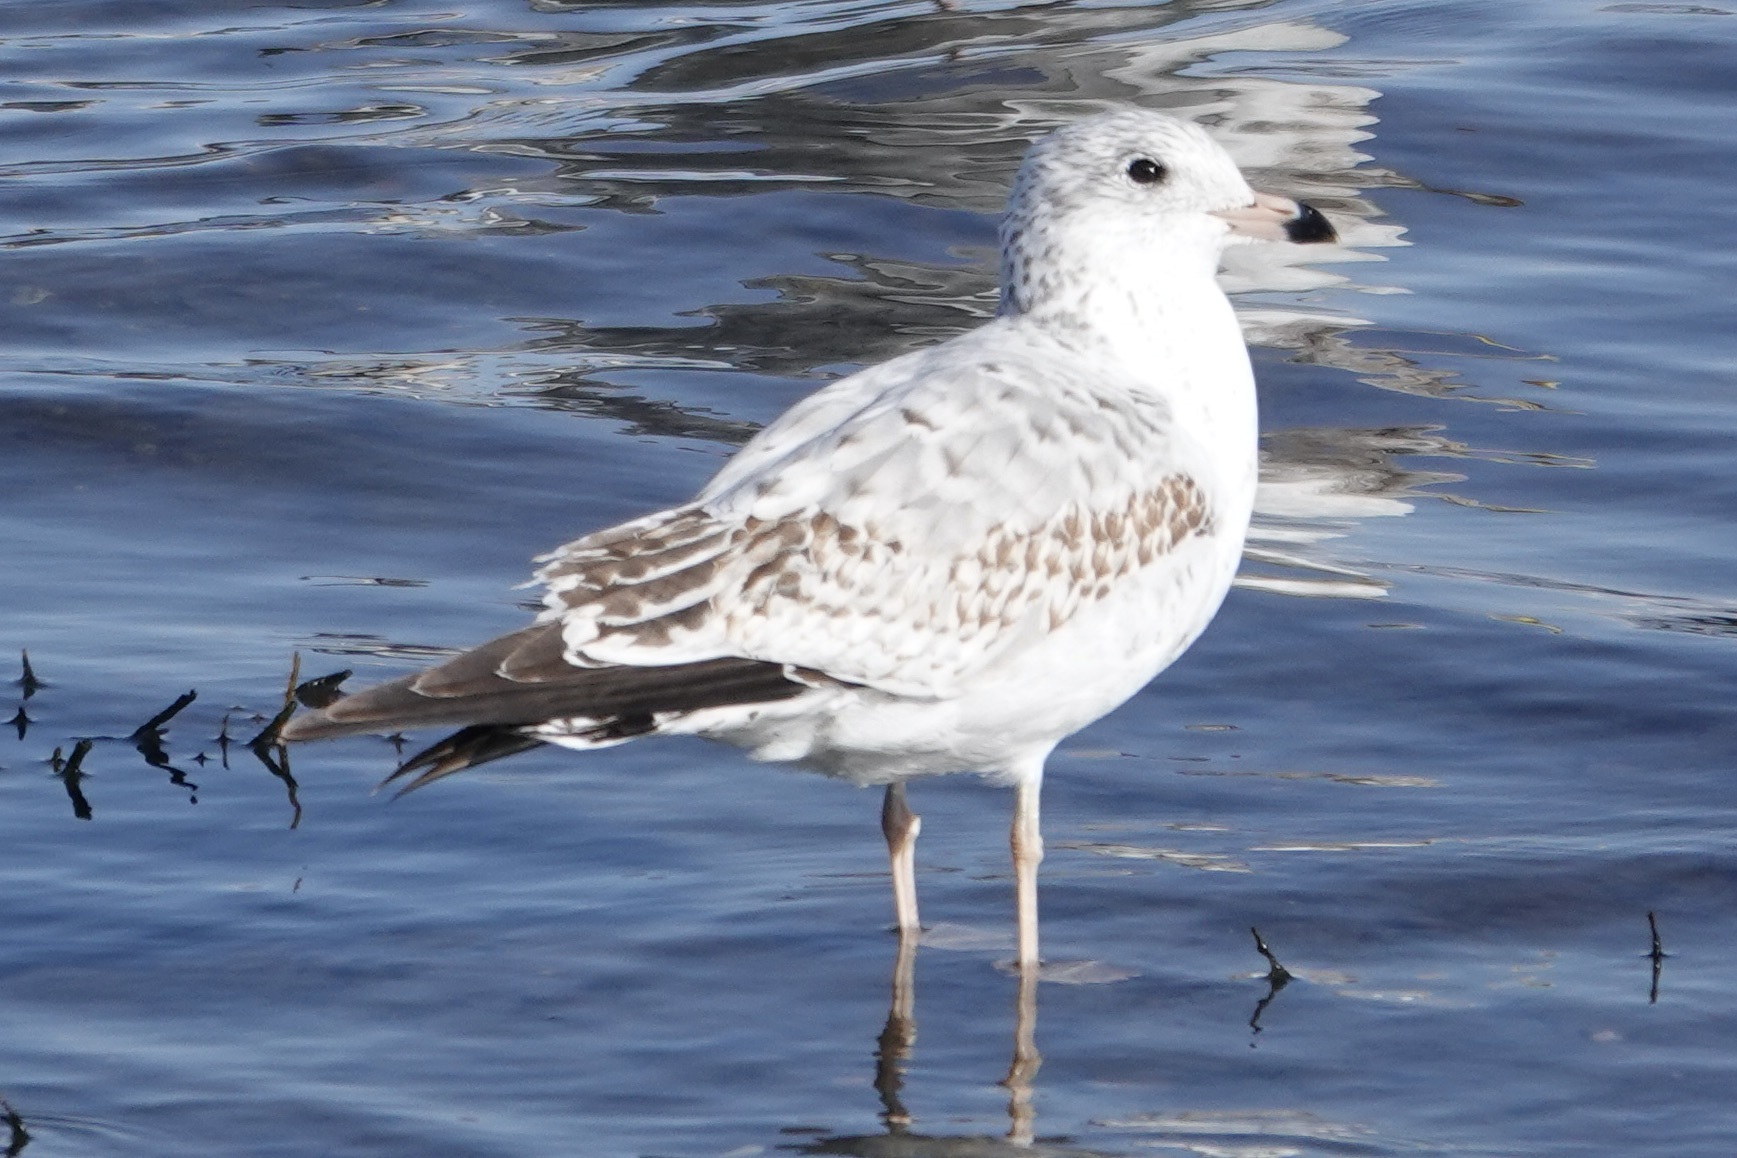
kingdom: Animalia
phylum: Chordata
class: Aves
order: Charadriiformes
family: Laridae
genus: Larus
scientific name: Larus delawarensis
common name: Ring-billed gull
